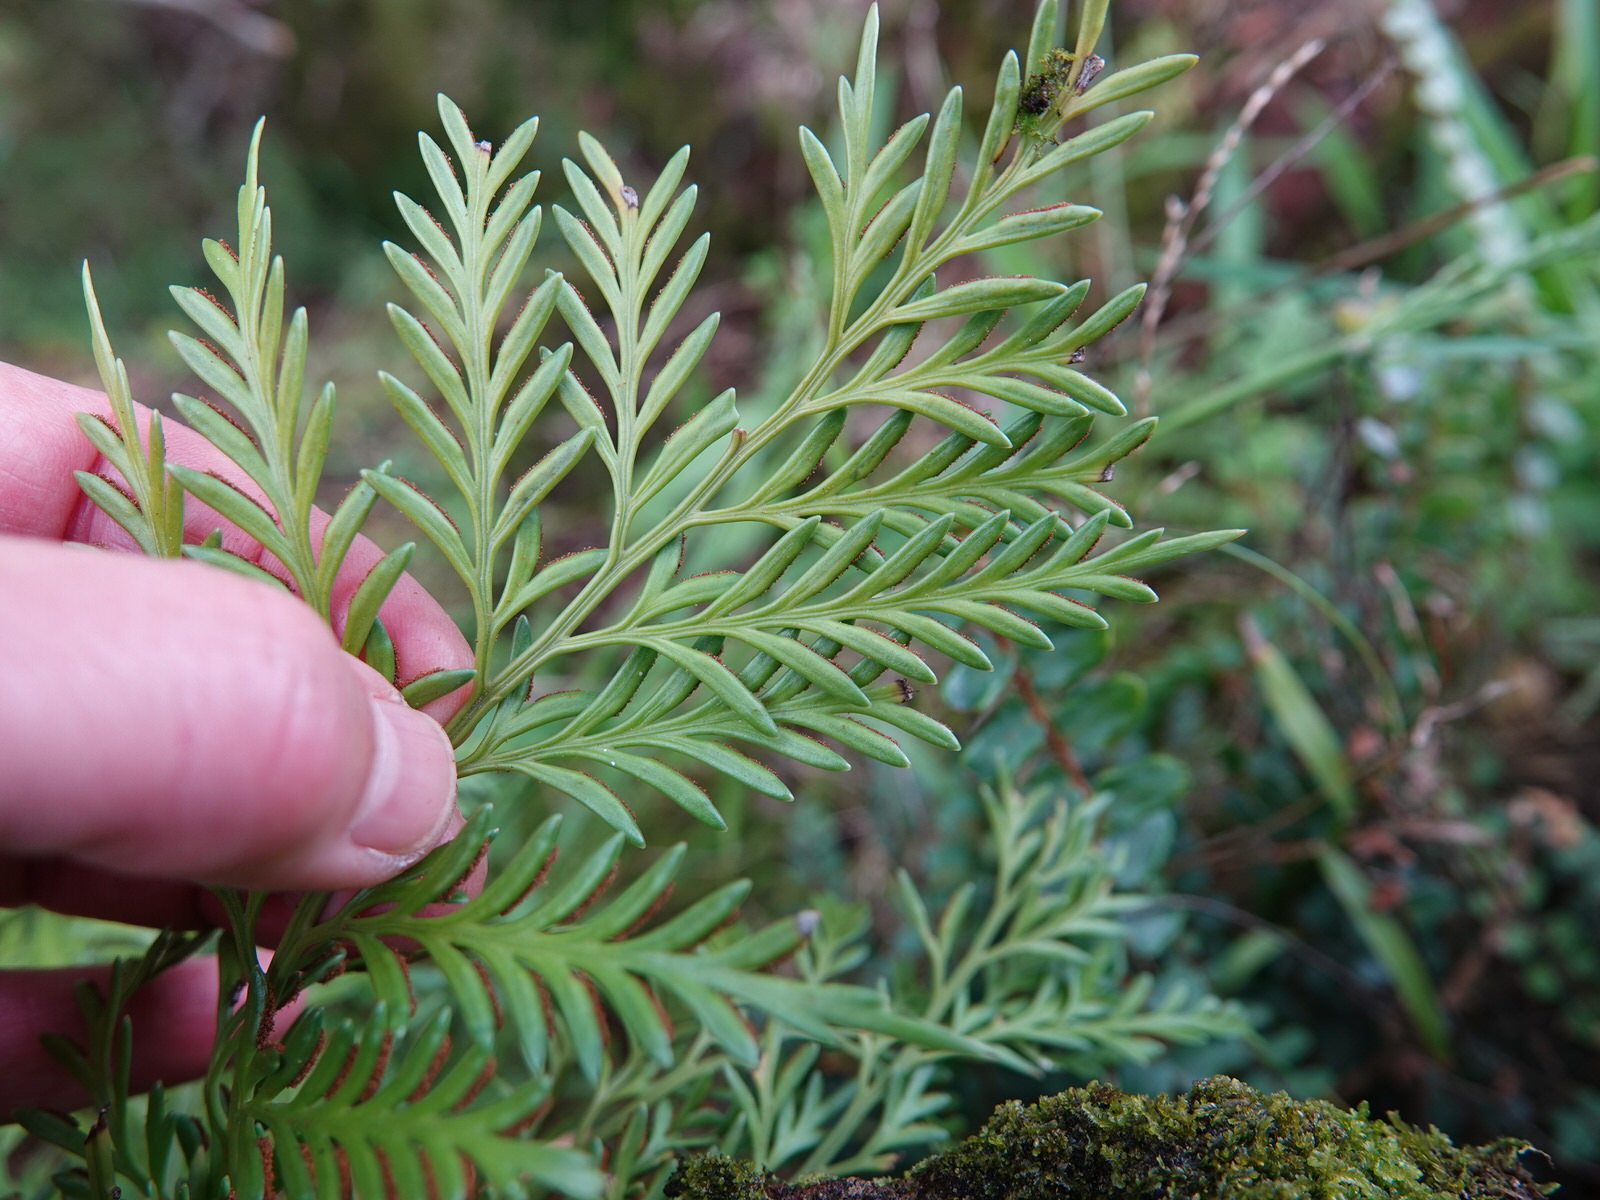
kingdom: Plantae
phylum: Tracheophyta
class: Polypodiopsida
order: Polypodiales
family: Aspleniaceae
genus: Asplenium
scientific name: Asplenium flaccidum
